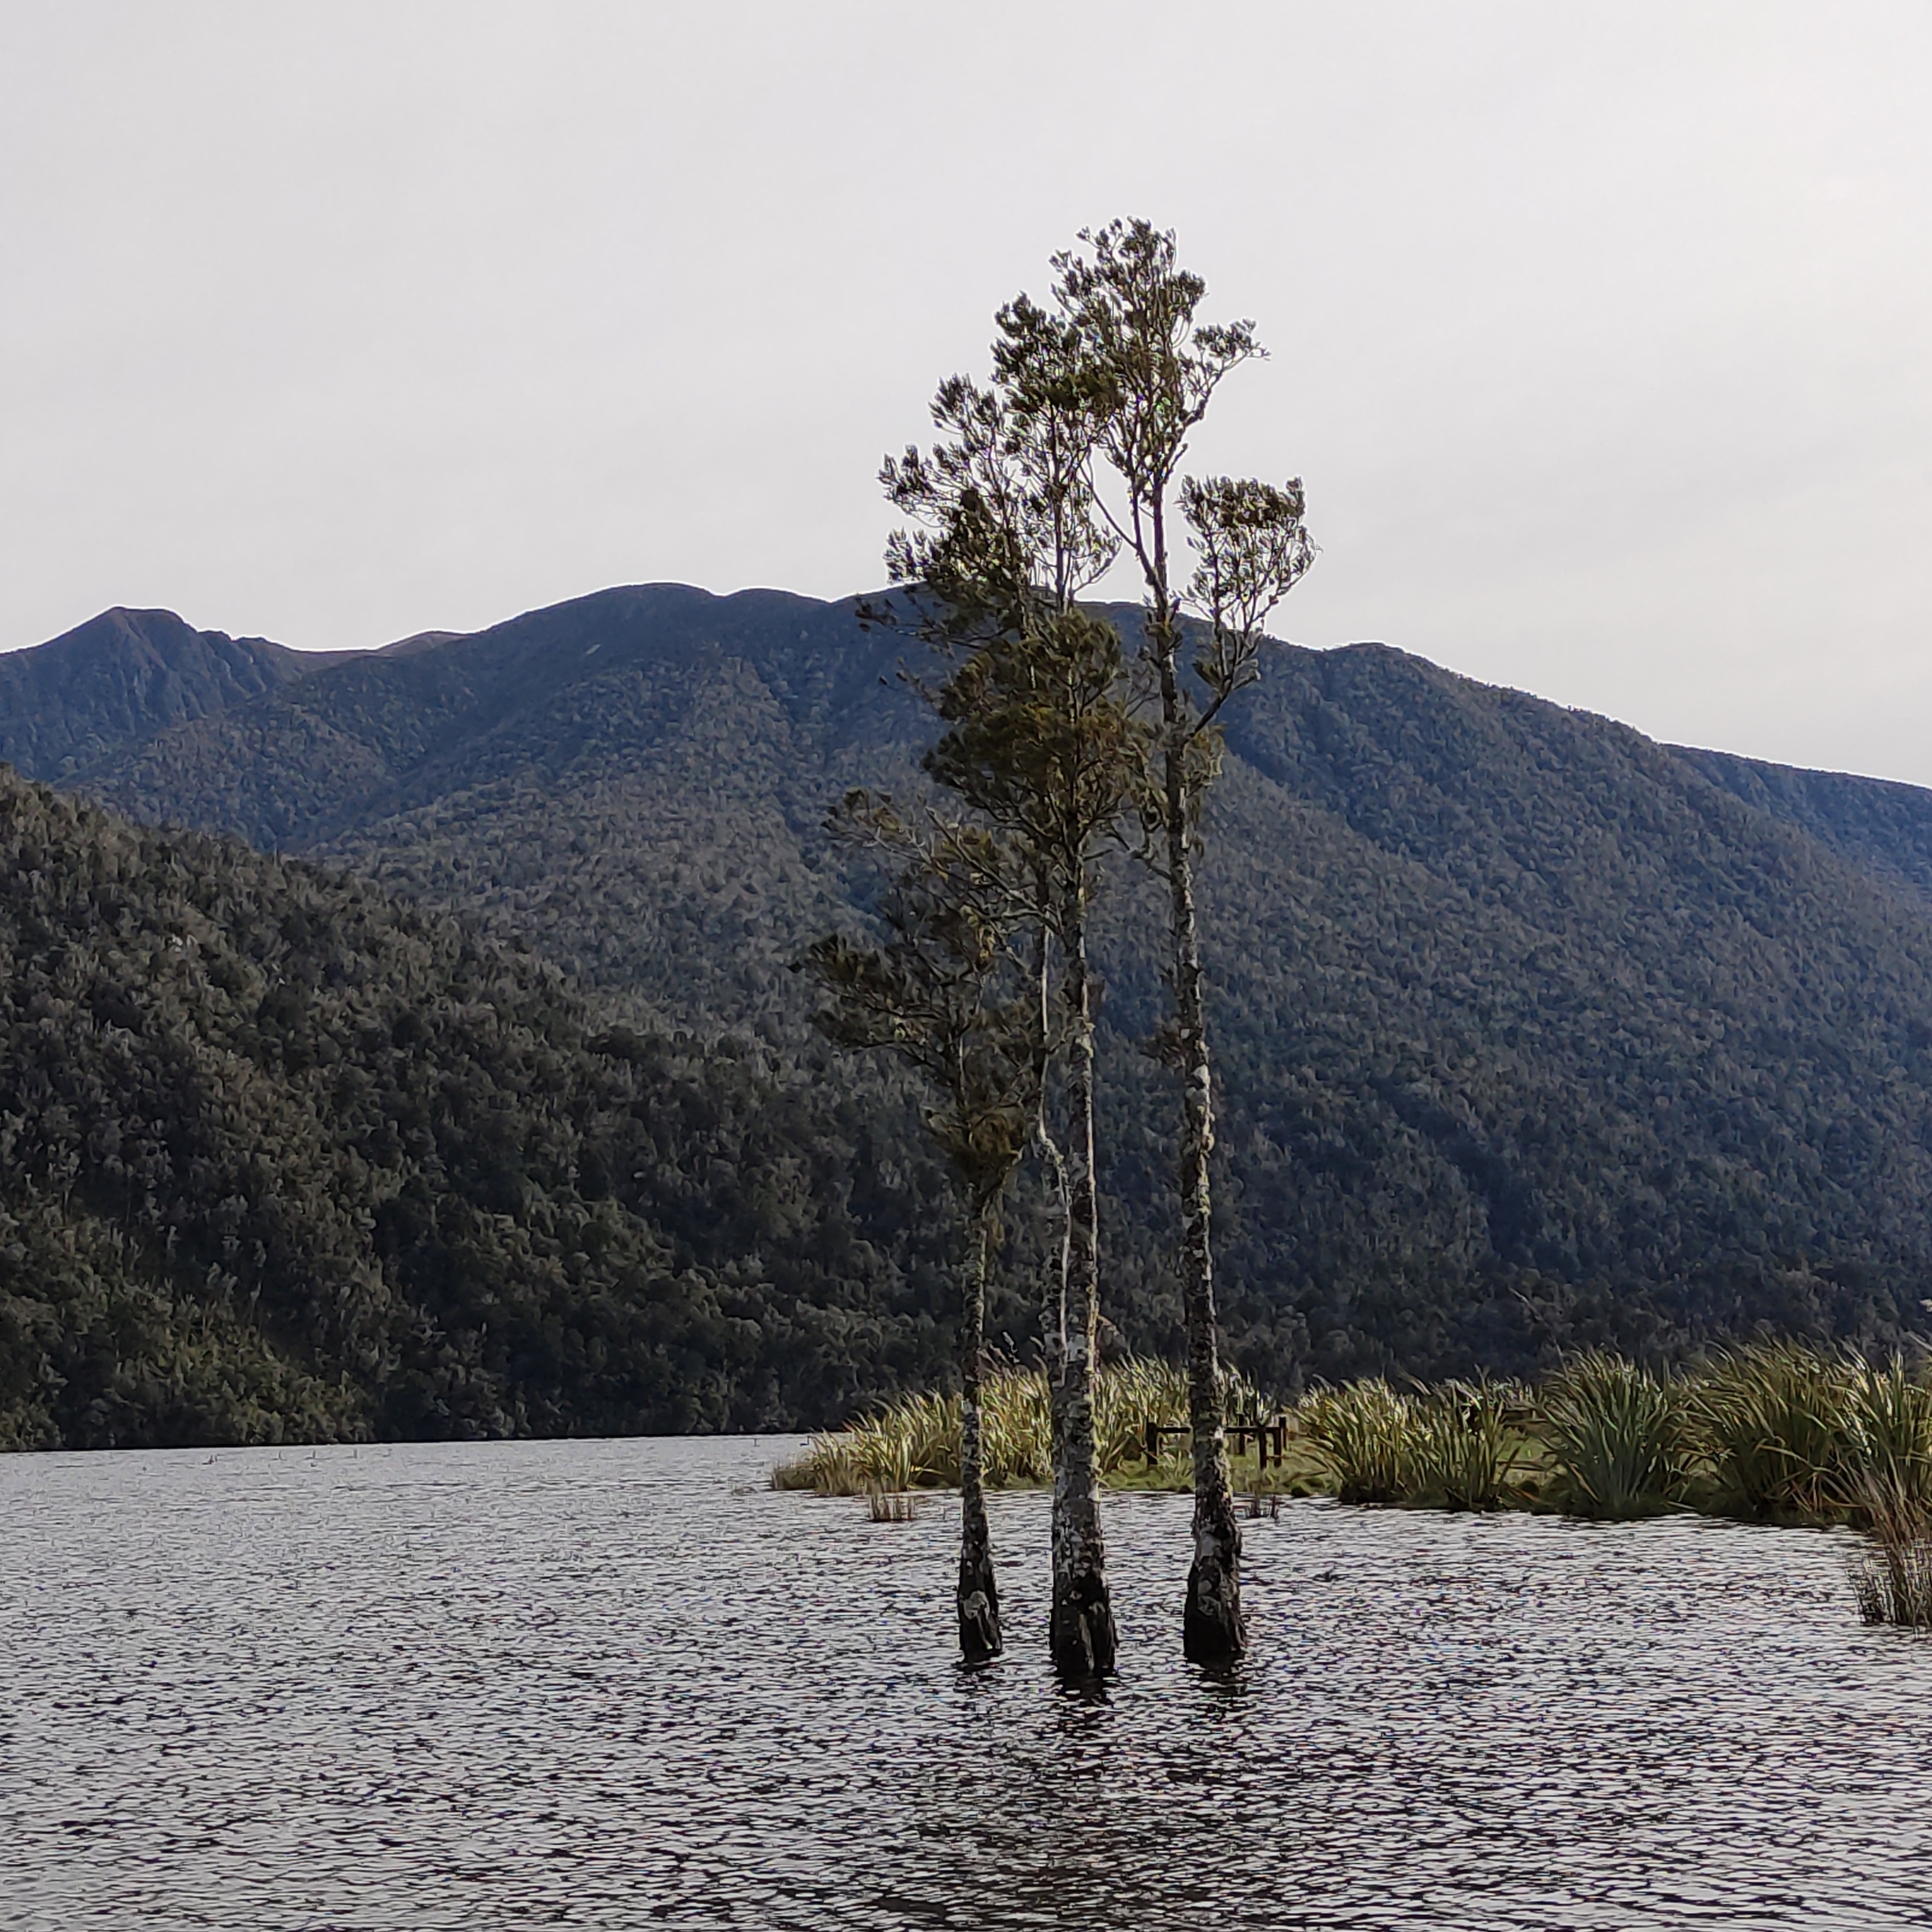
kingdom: Plantae
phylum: Tracheophyta
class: Pinopsida
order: Pinales
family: Podocarpaceae
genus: Dacrycarpus
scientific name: Dacrycarpus dacrydioides
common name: White pine
